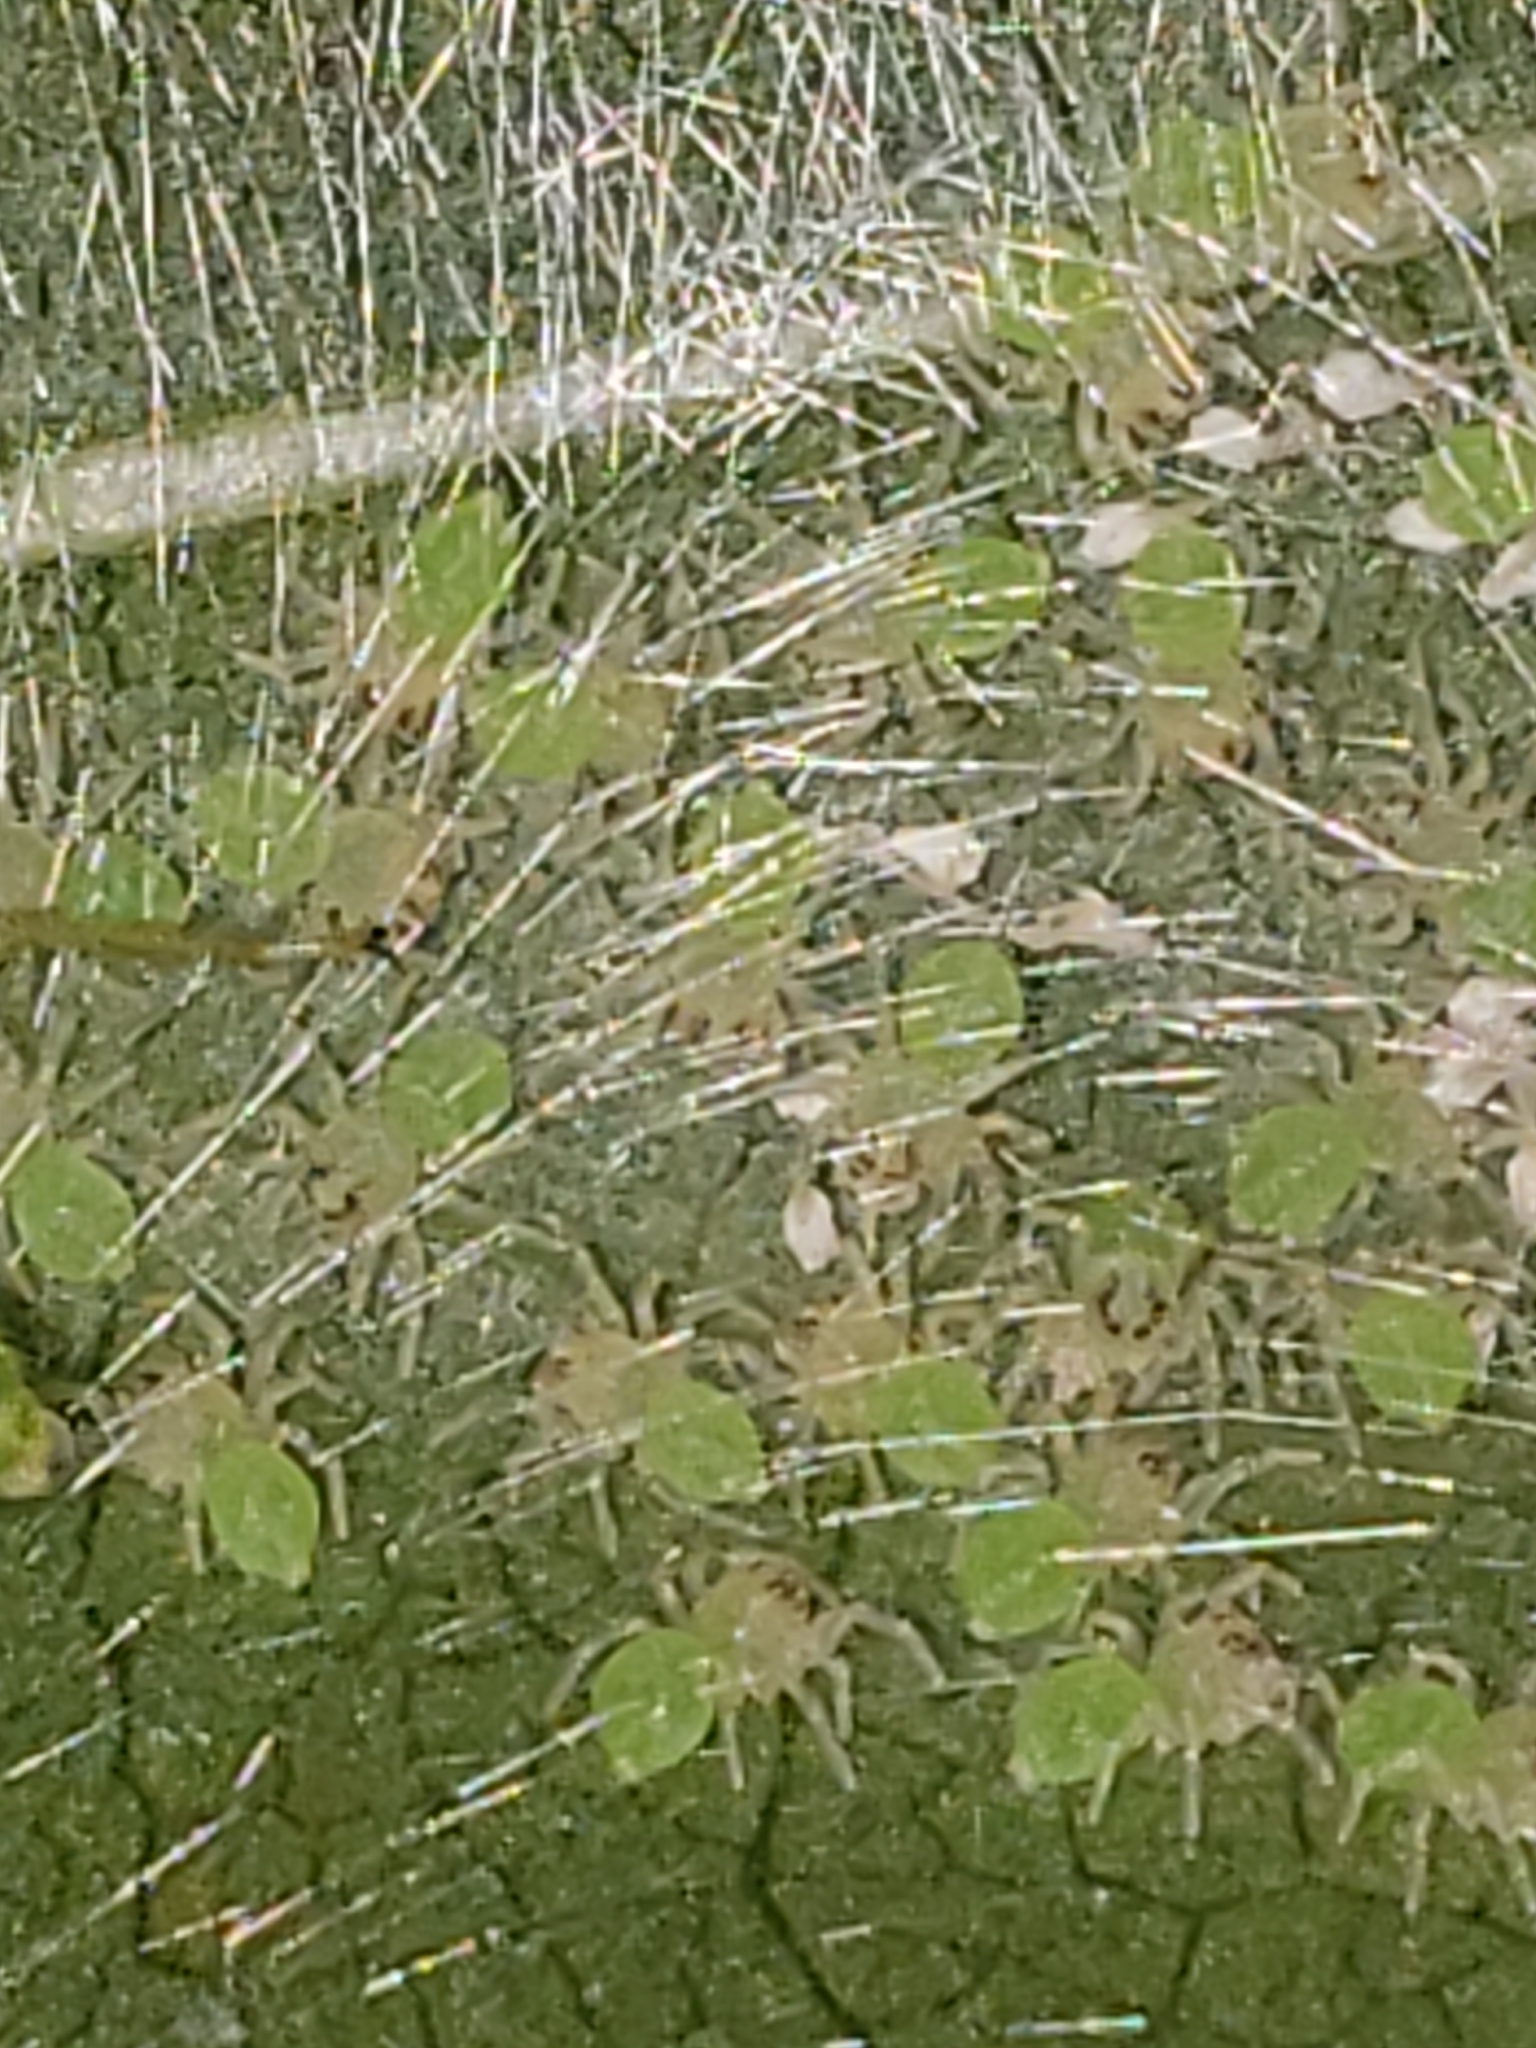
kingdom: Animalia
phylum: Arthropoda
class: Arachnida
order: Araneae
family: Salticidae
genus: Lyssomanes
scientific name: Lyssomanes viridis
